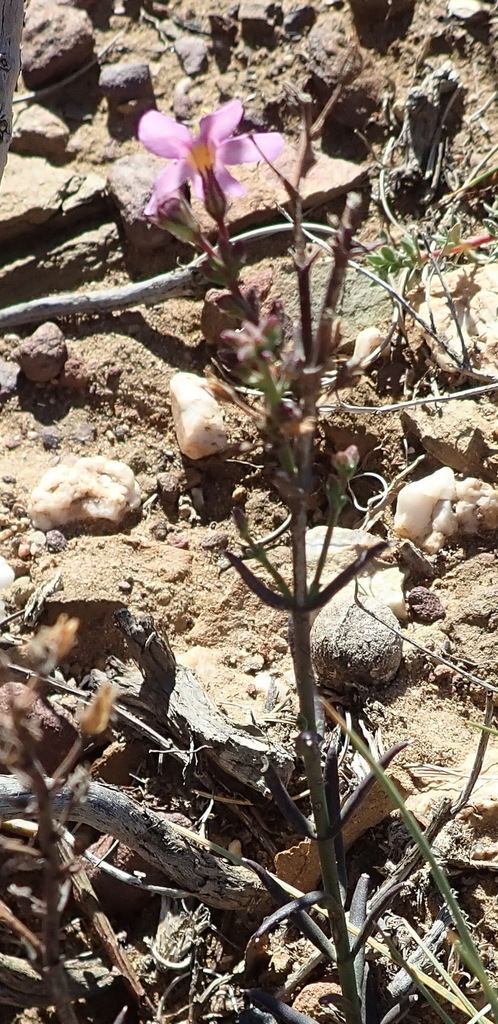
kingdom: Plantae
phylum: Tracheophyta
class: Magnoliopsida
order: Lamiales
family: Scrophulariaceae
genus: Chaenostoma
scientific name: Chaenostoma subnudum
